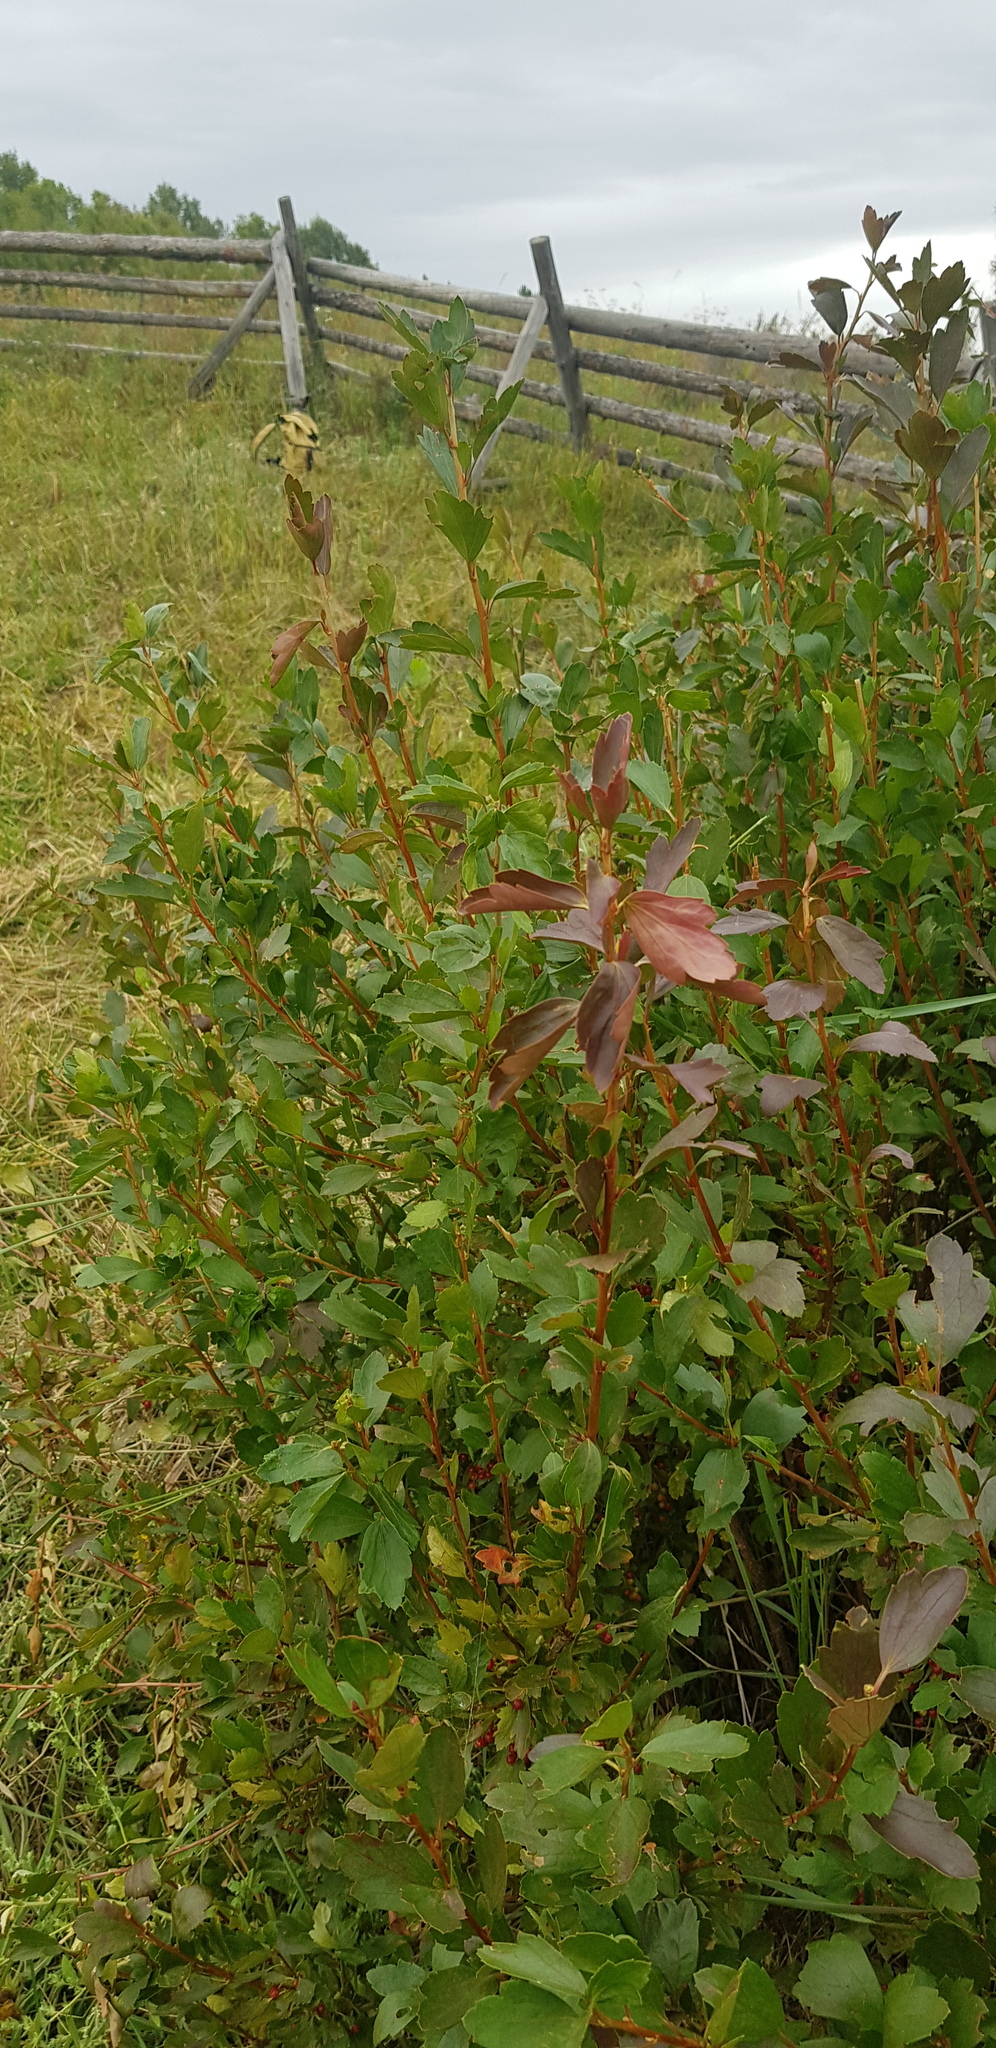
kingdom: Plantae
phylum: Tracheophyta
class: Magnoliopsida
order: Saxifragales
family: Grossulariaceae
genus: Ribes
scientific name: Ribes diacanthum
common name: Siberian currant
